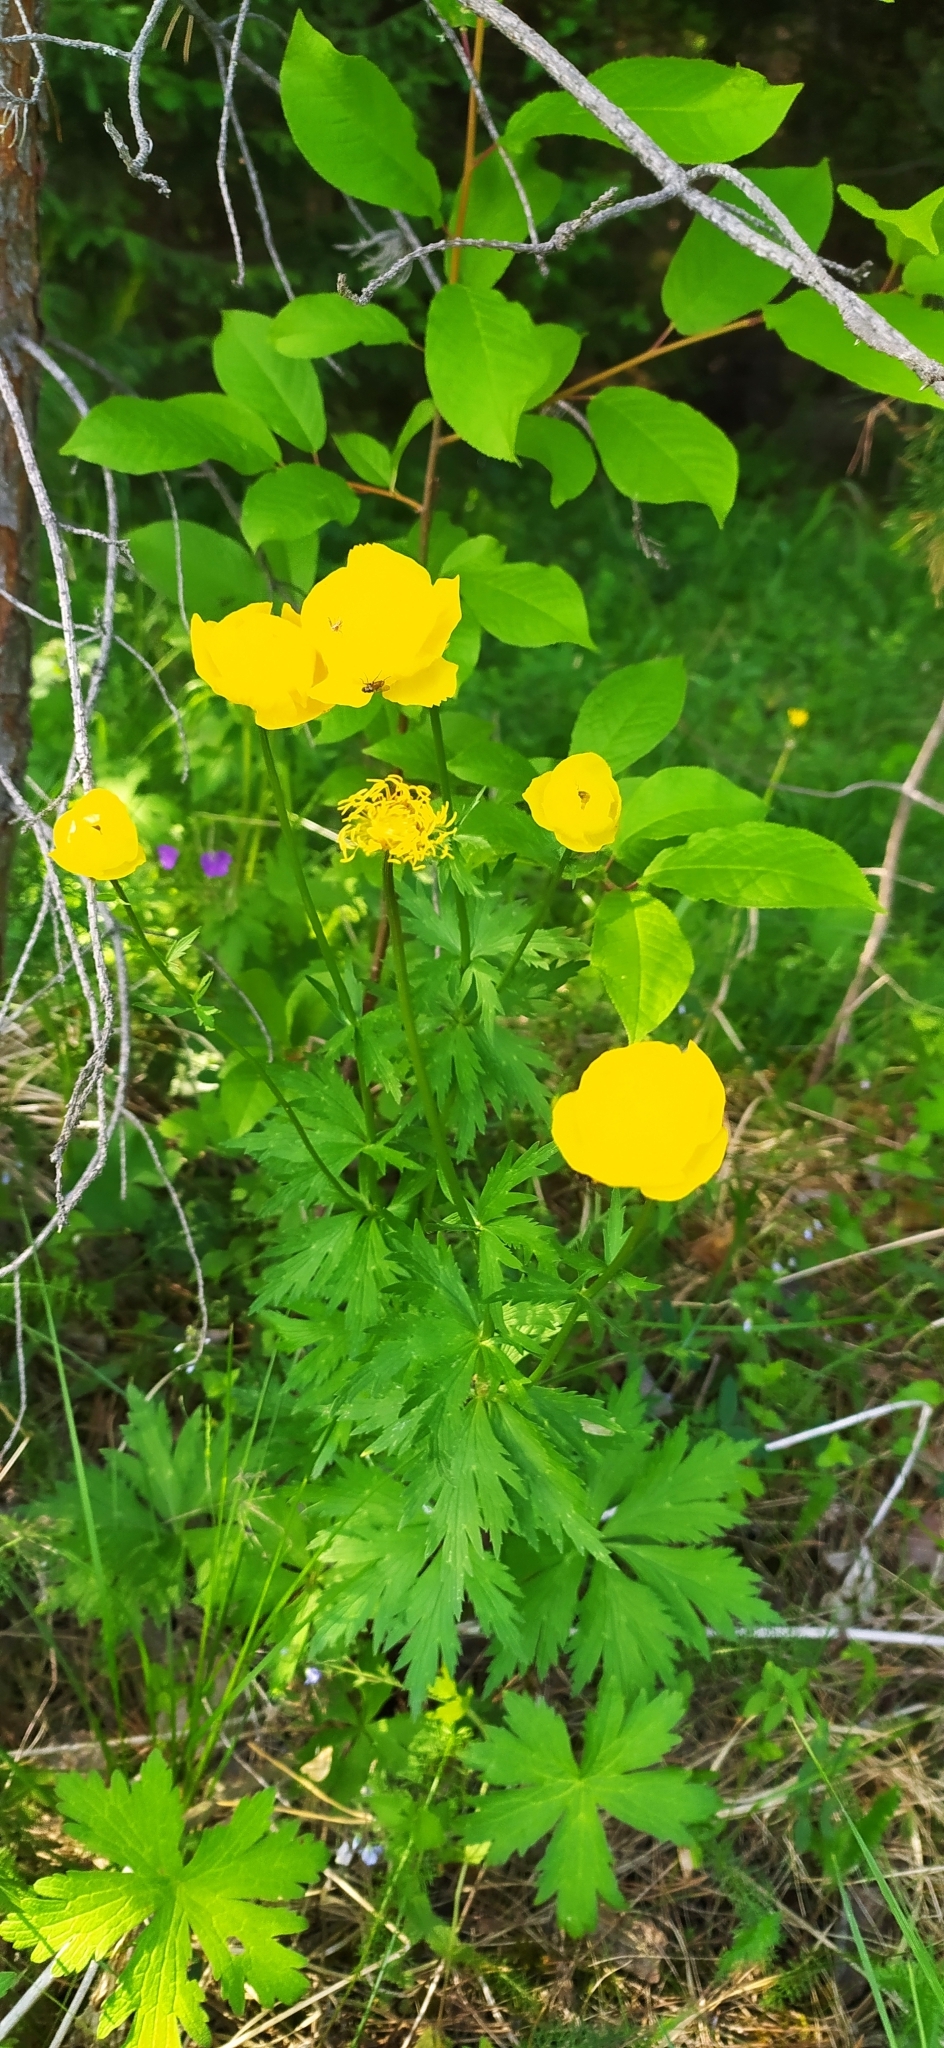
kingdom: Plantae
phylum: Tracheophyta
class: Magnoliopsida
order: Ranunculales
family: Ranunculaceae
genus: Trollius
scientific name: Trollius europaeus
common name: European globeflower
